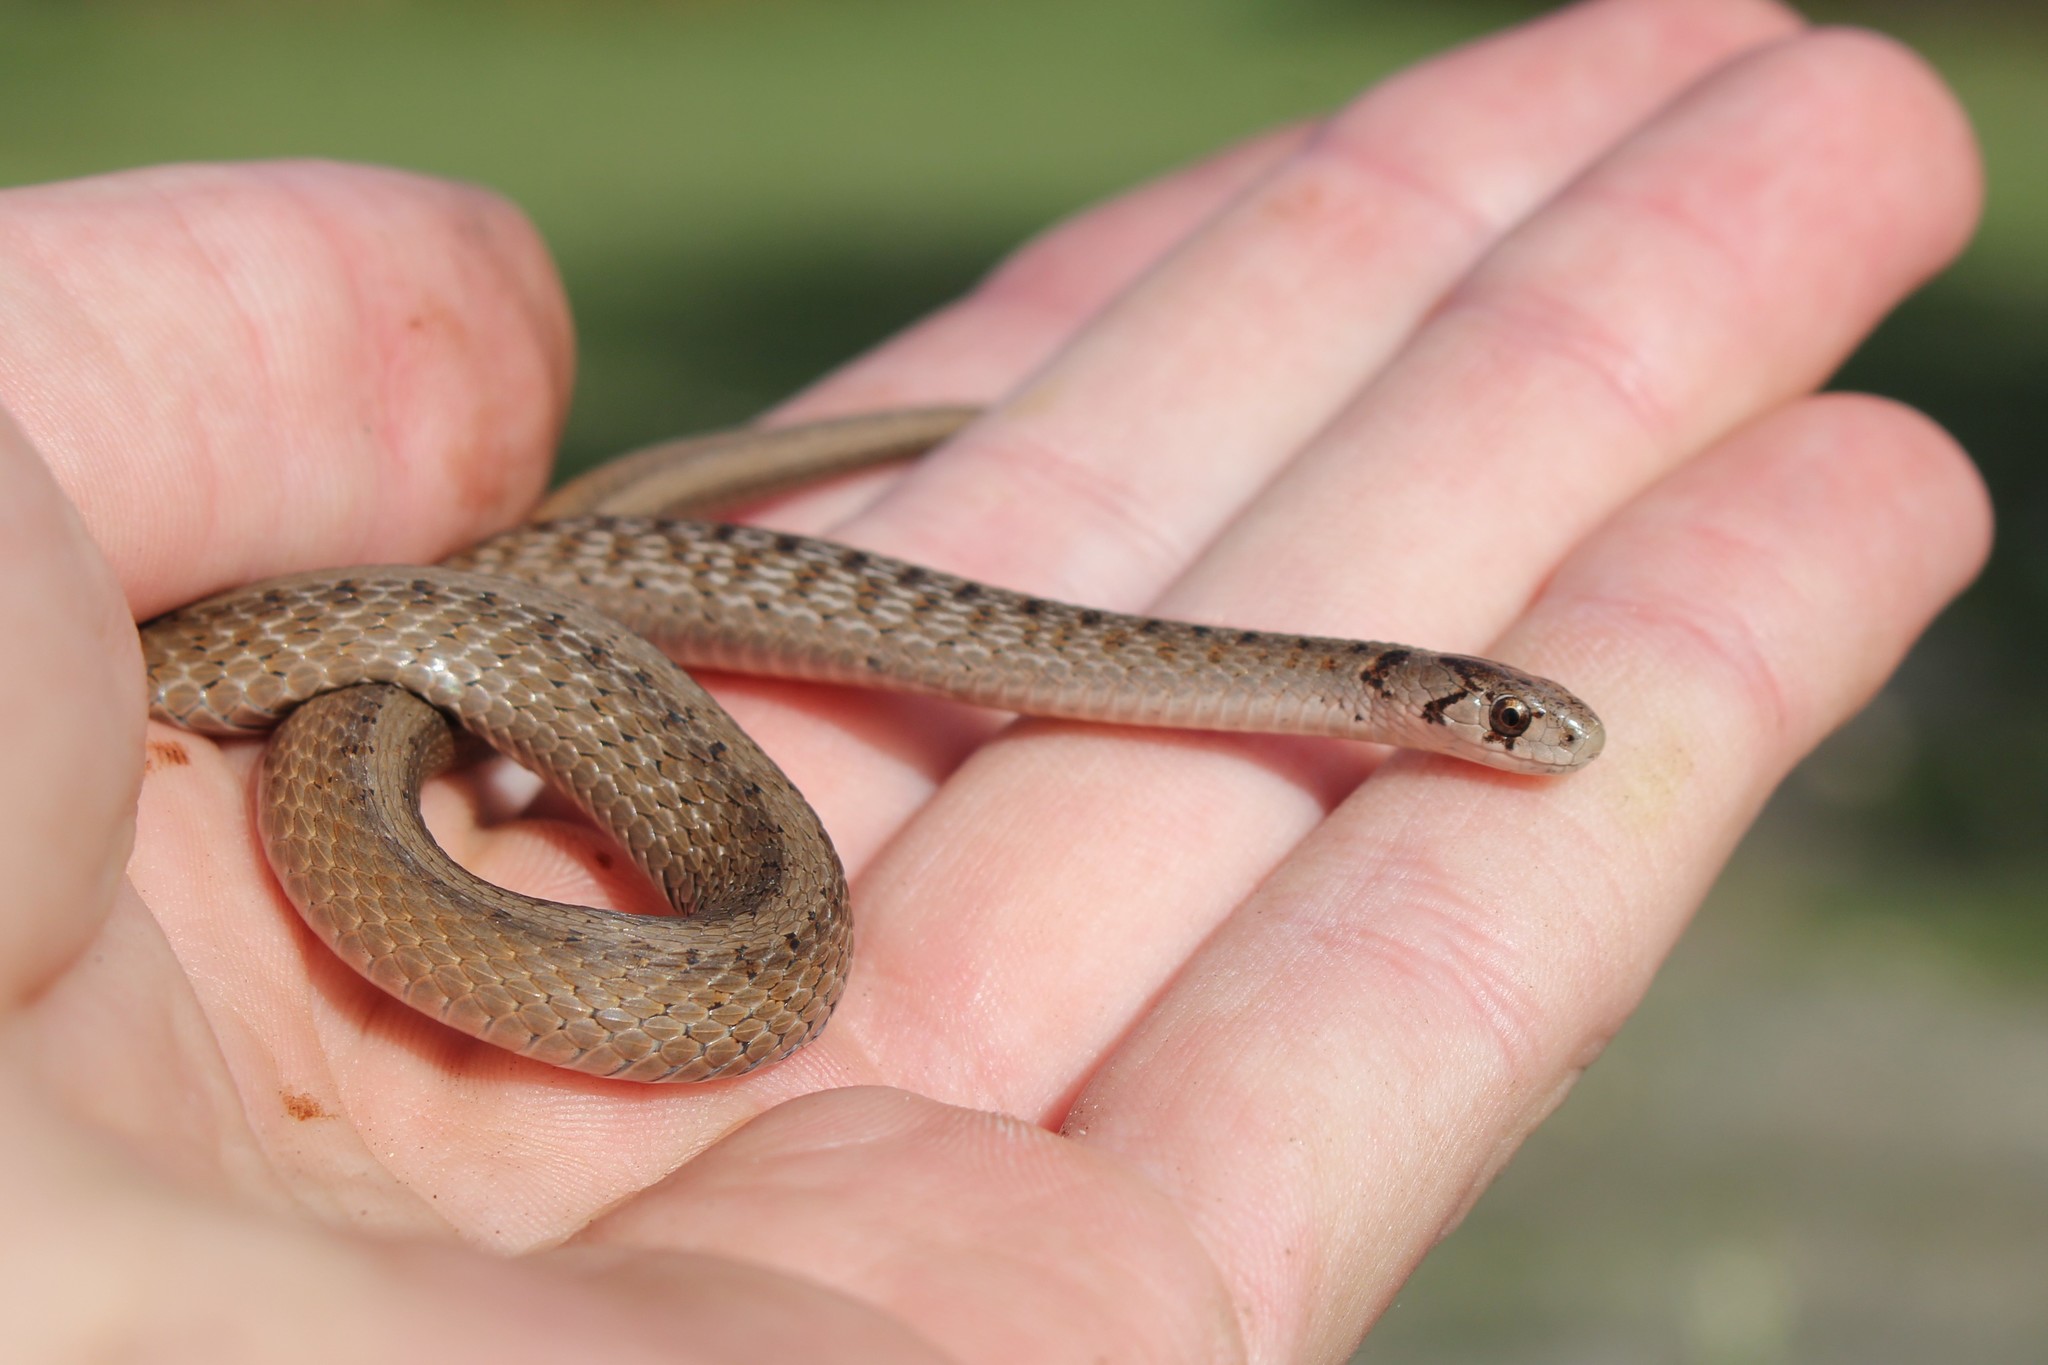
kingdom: Animalia
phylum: Chordata
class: Squamata
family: Colubridae
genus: Storeria
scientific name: Storeria dekayi
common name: (dekay’s) brown snake
